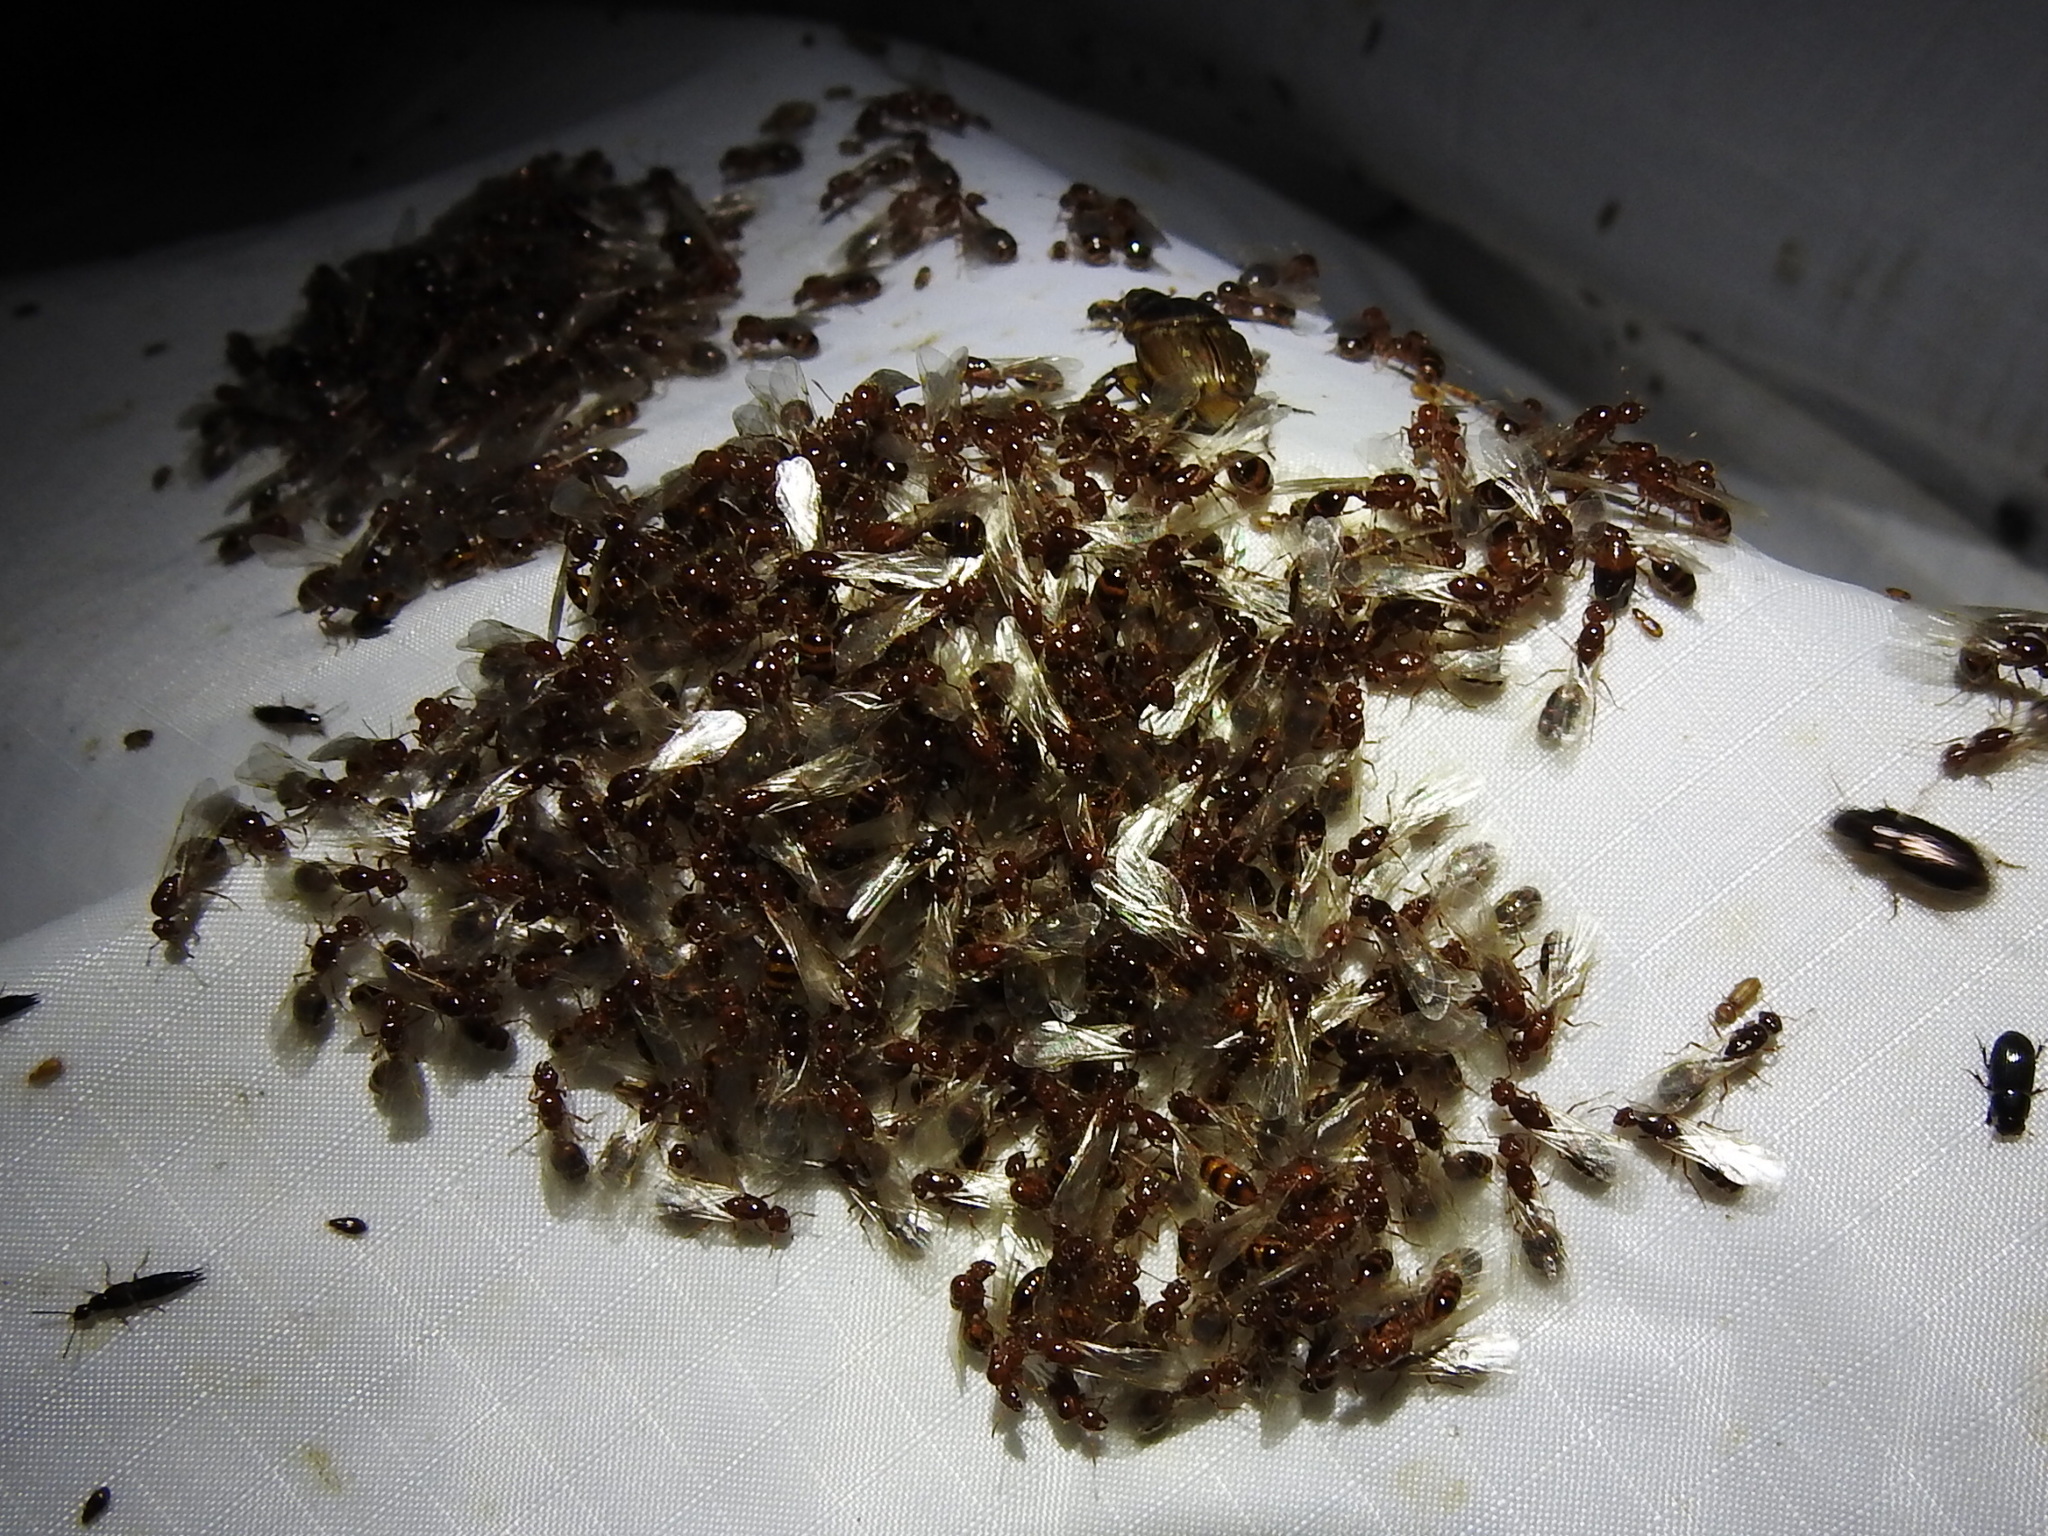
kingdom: Animalia
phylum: Arthropoda
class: Insecta
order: Hymenoptera
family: Formicidae
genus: Solenopsis
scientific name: Solenopsis invicta
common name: Red imported fire ant
